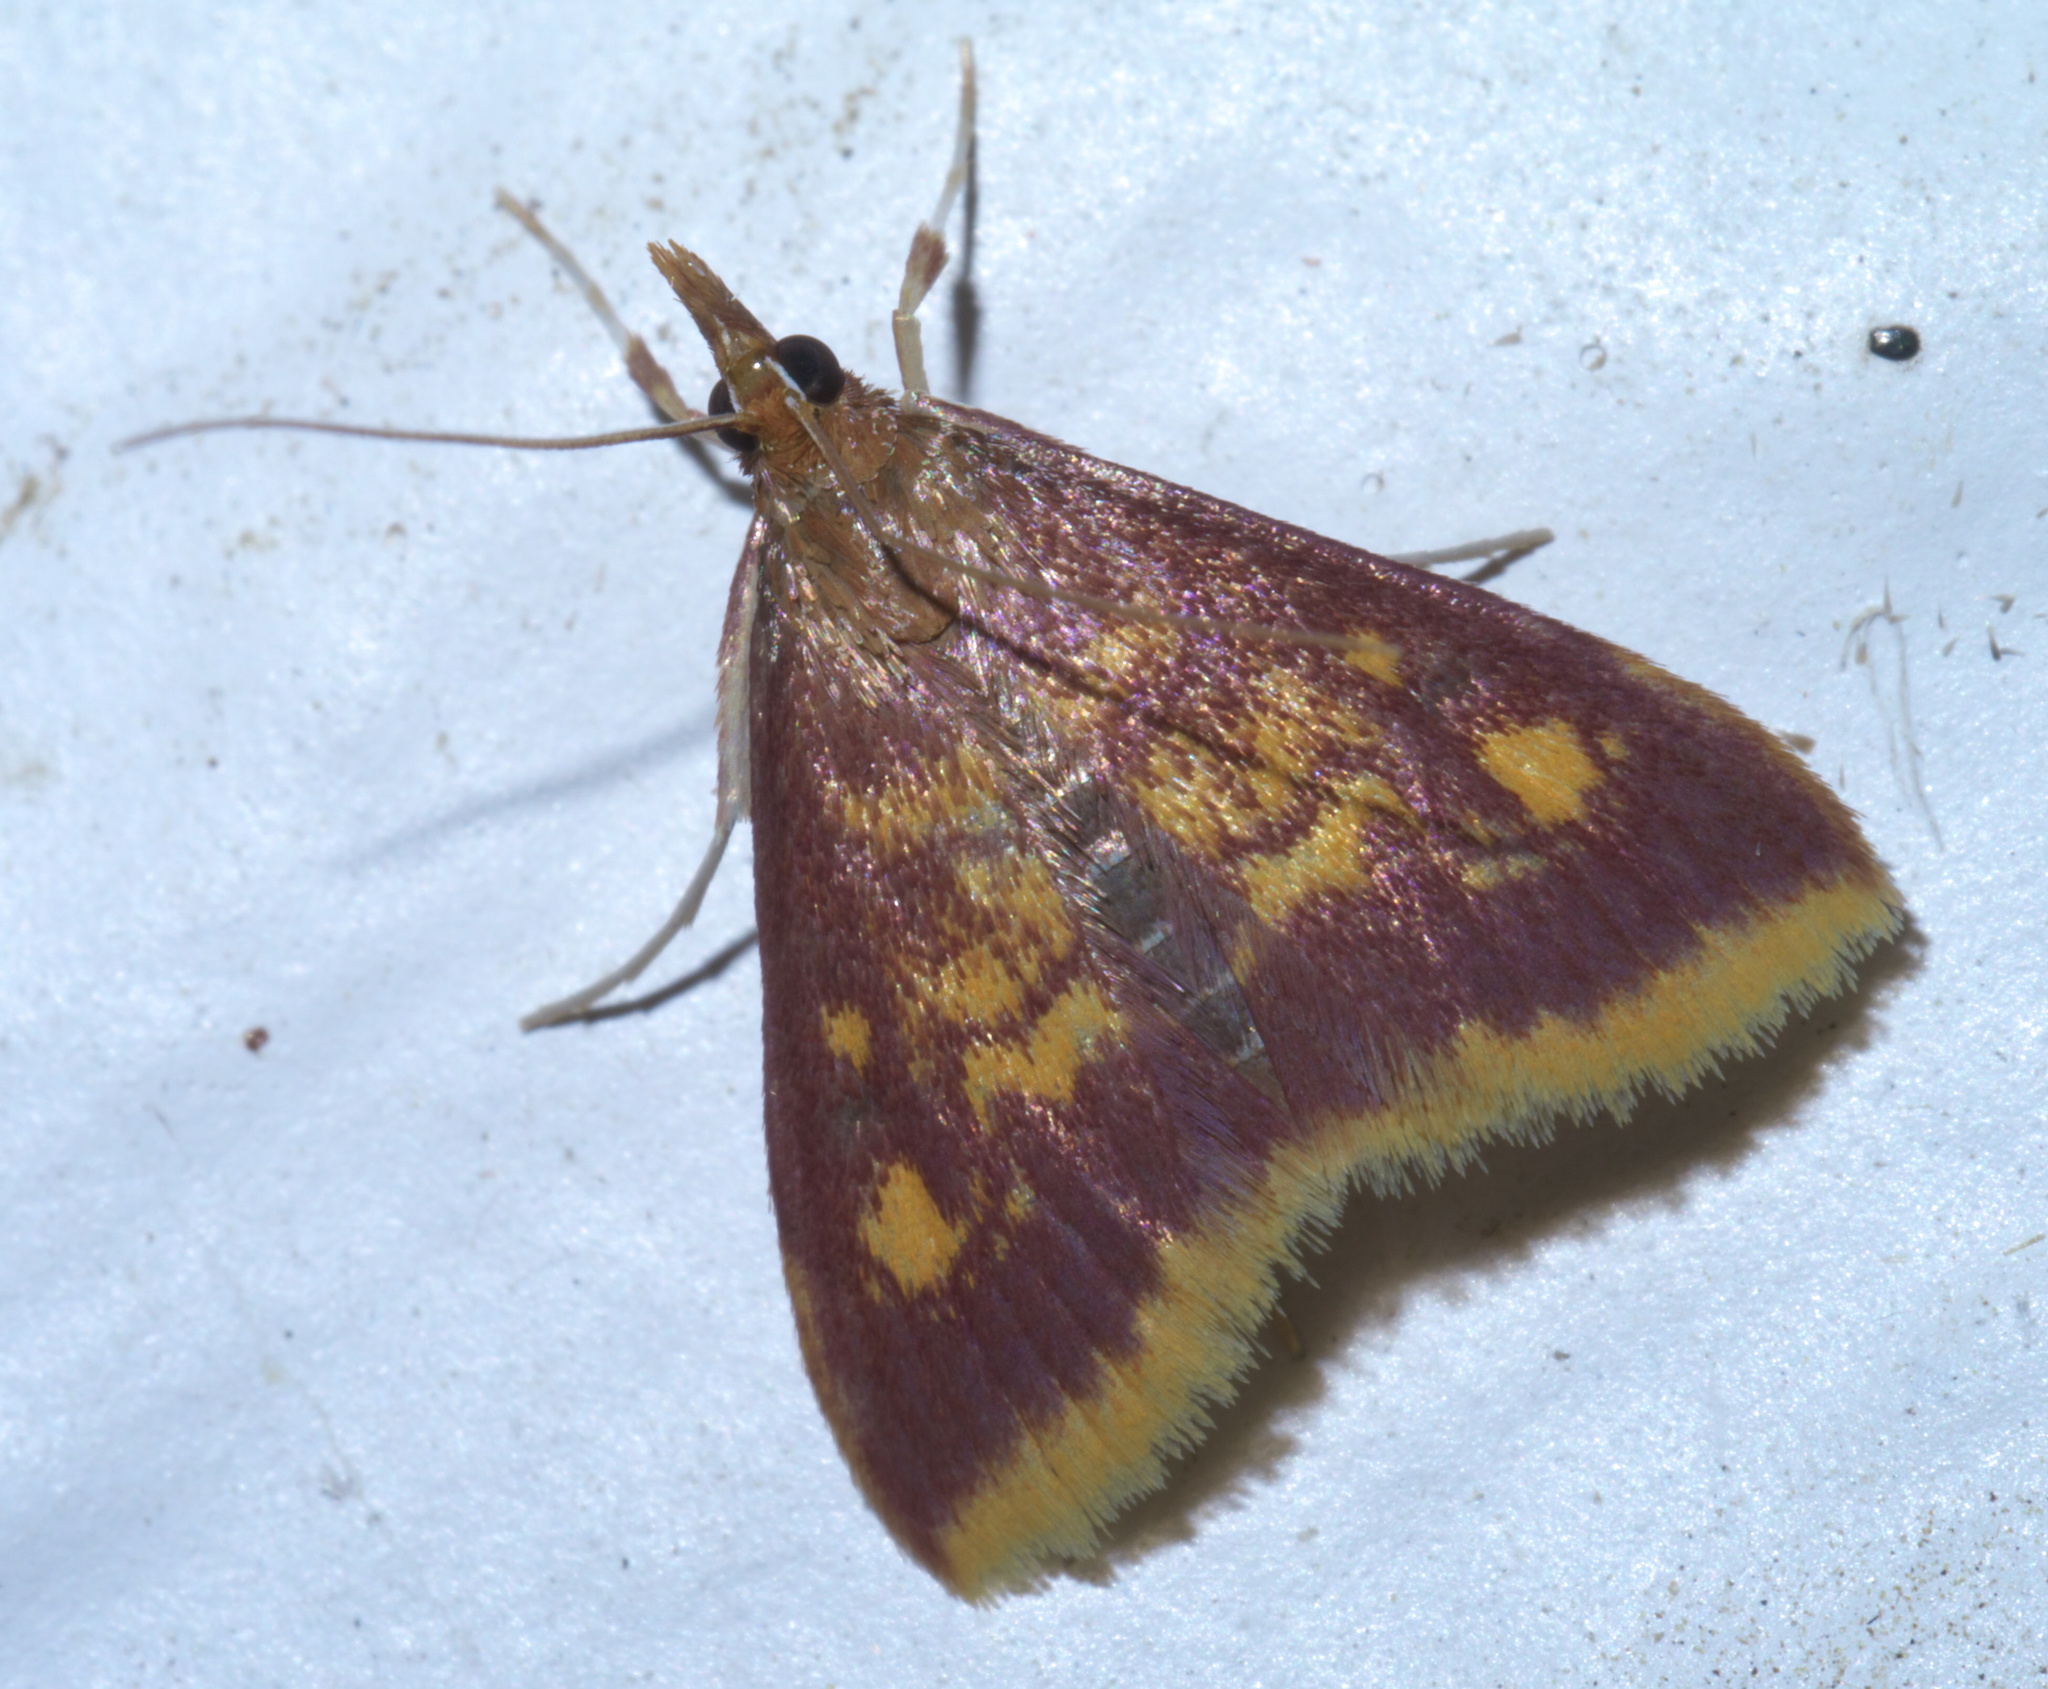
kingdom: Animalia
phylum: Arthropoda
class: Insecta
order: Lepidoptera
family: Crambidae
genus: Pyrausta
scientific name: Pyrausta acrionalis
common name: Mint-loving pyrausta moth
